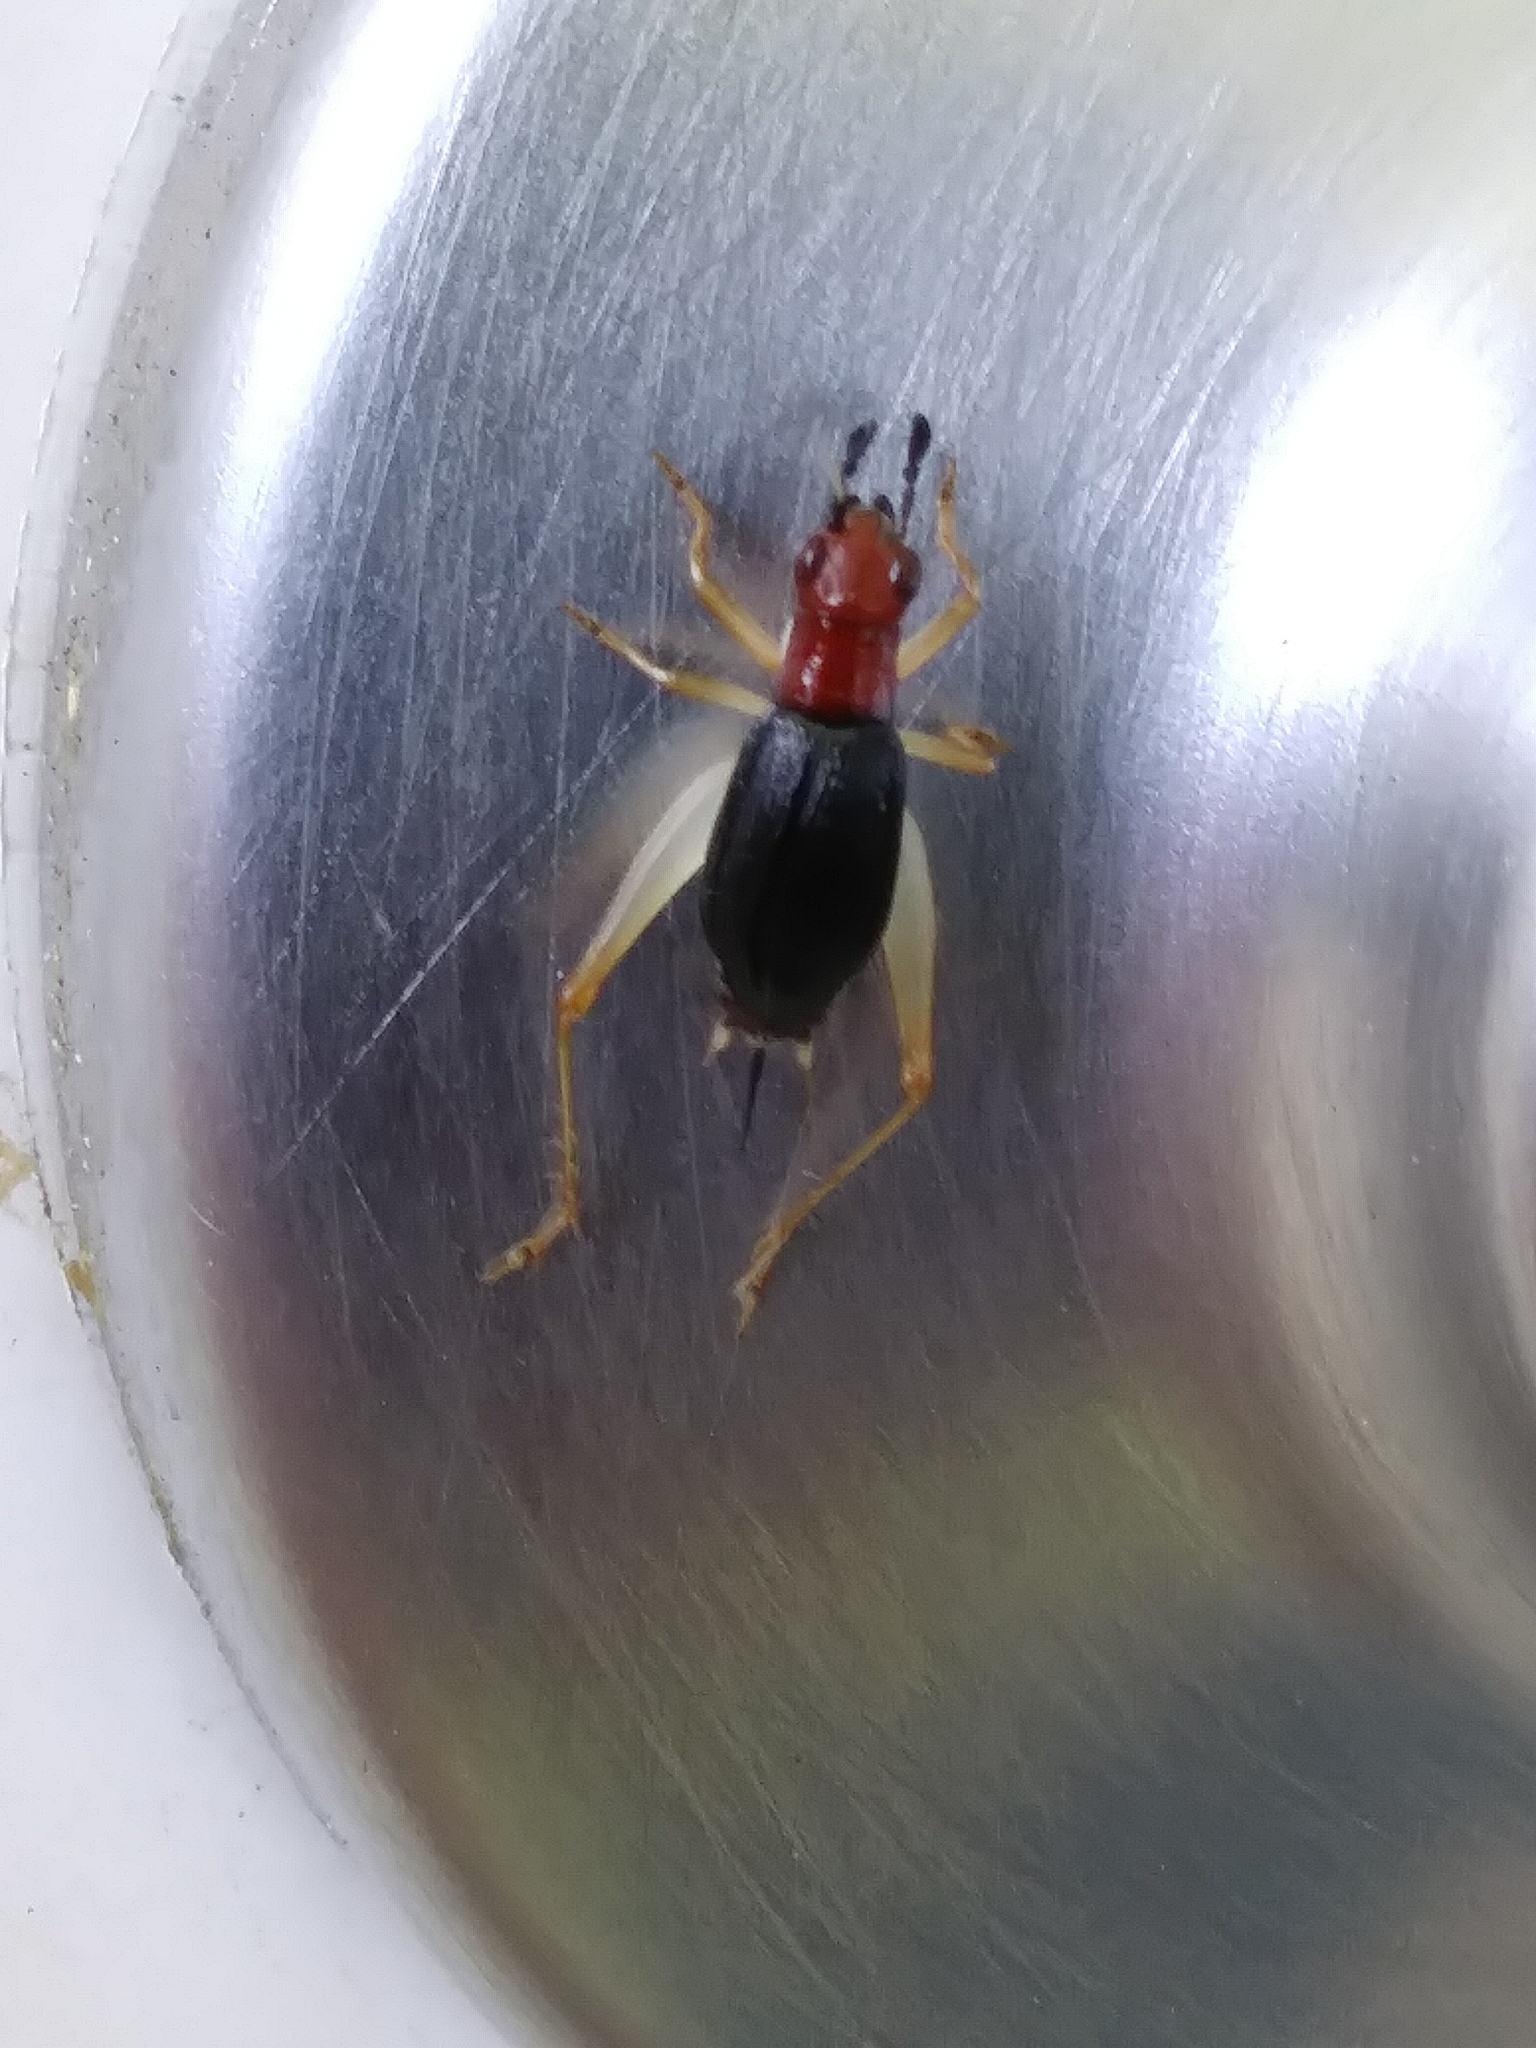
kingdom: Animalia
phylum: Arthropoda
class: Insecta
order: Orthoptera
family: Trigonidiidae
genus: Phyllopalpus
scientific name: Phyllopalpus pulchellus
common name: Handsome trig
